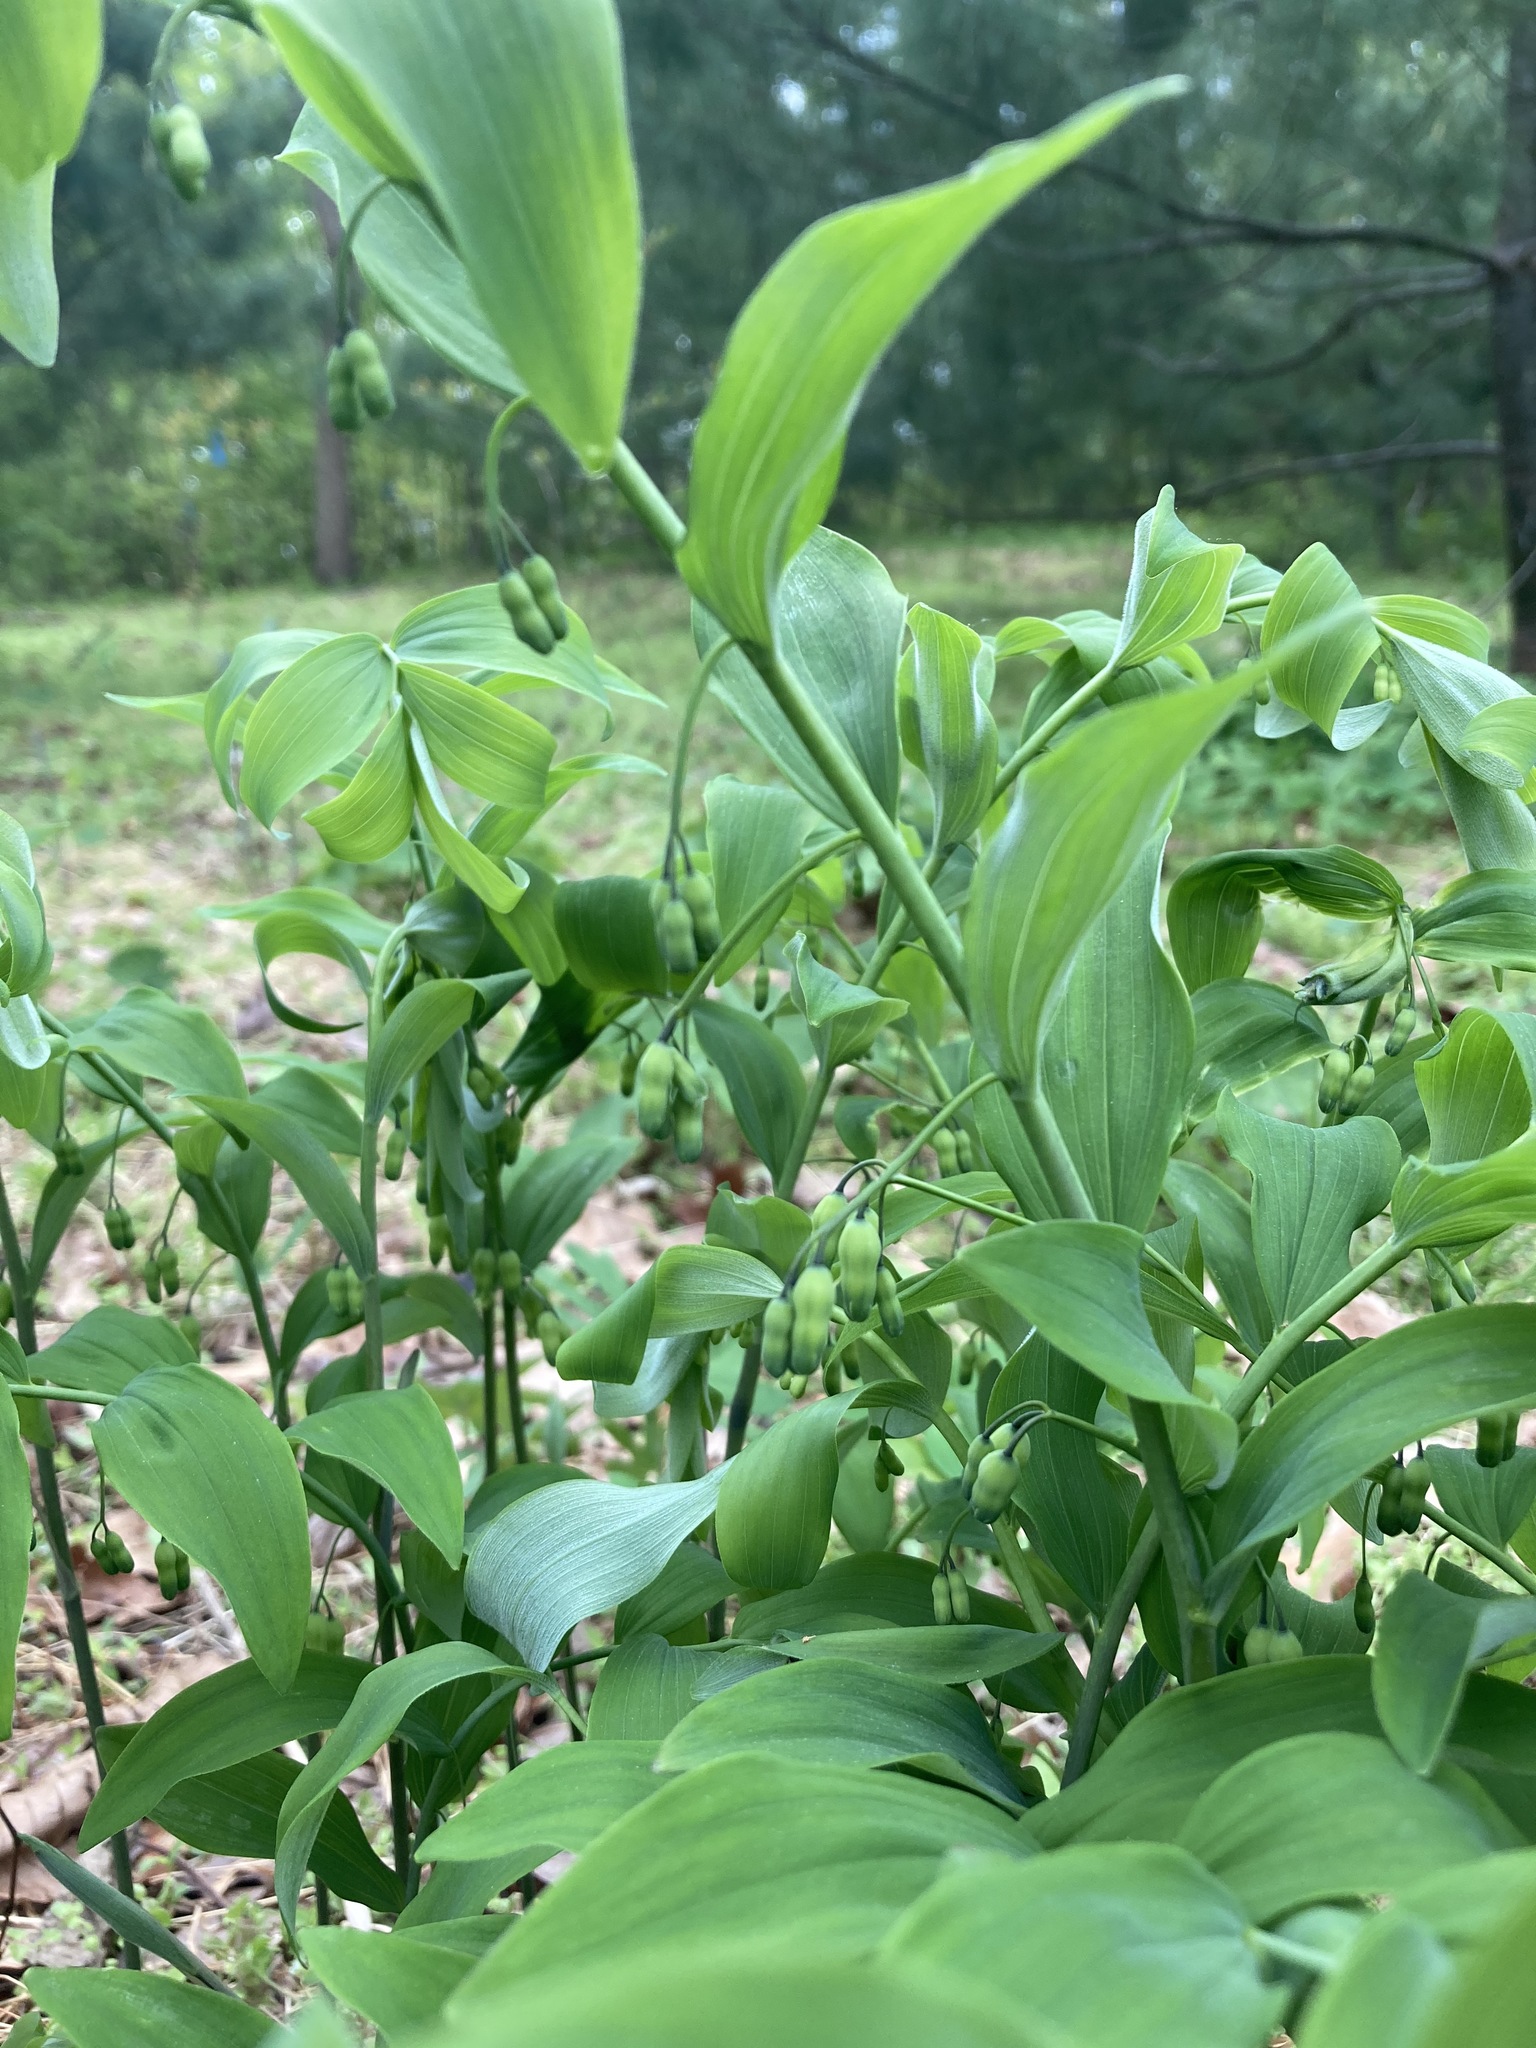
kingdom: Plantae
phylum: Tracheophyta
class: Liliopsida
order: Asparagales
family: Asparagaceae
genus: Polygonatum
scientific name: Polygonatum pubescens
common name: Downy solomon's seal
